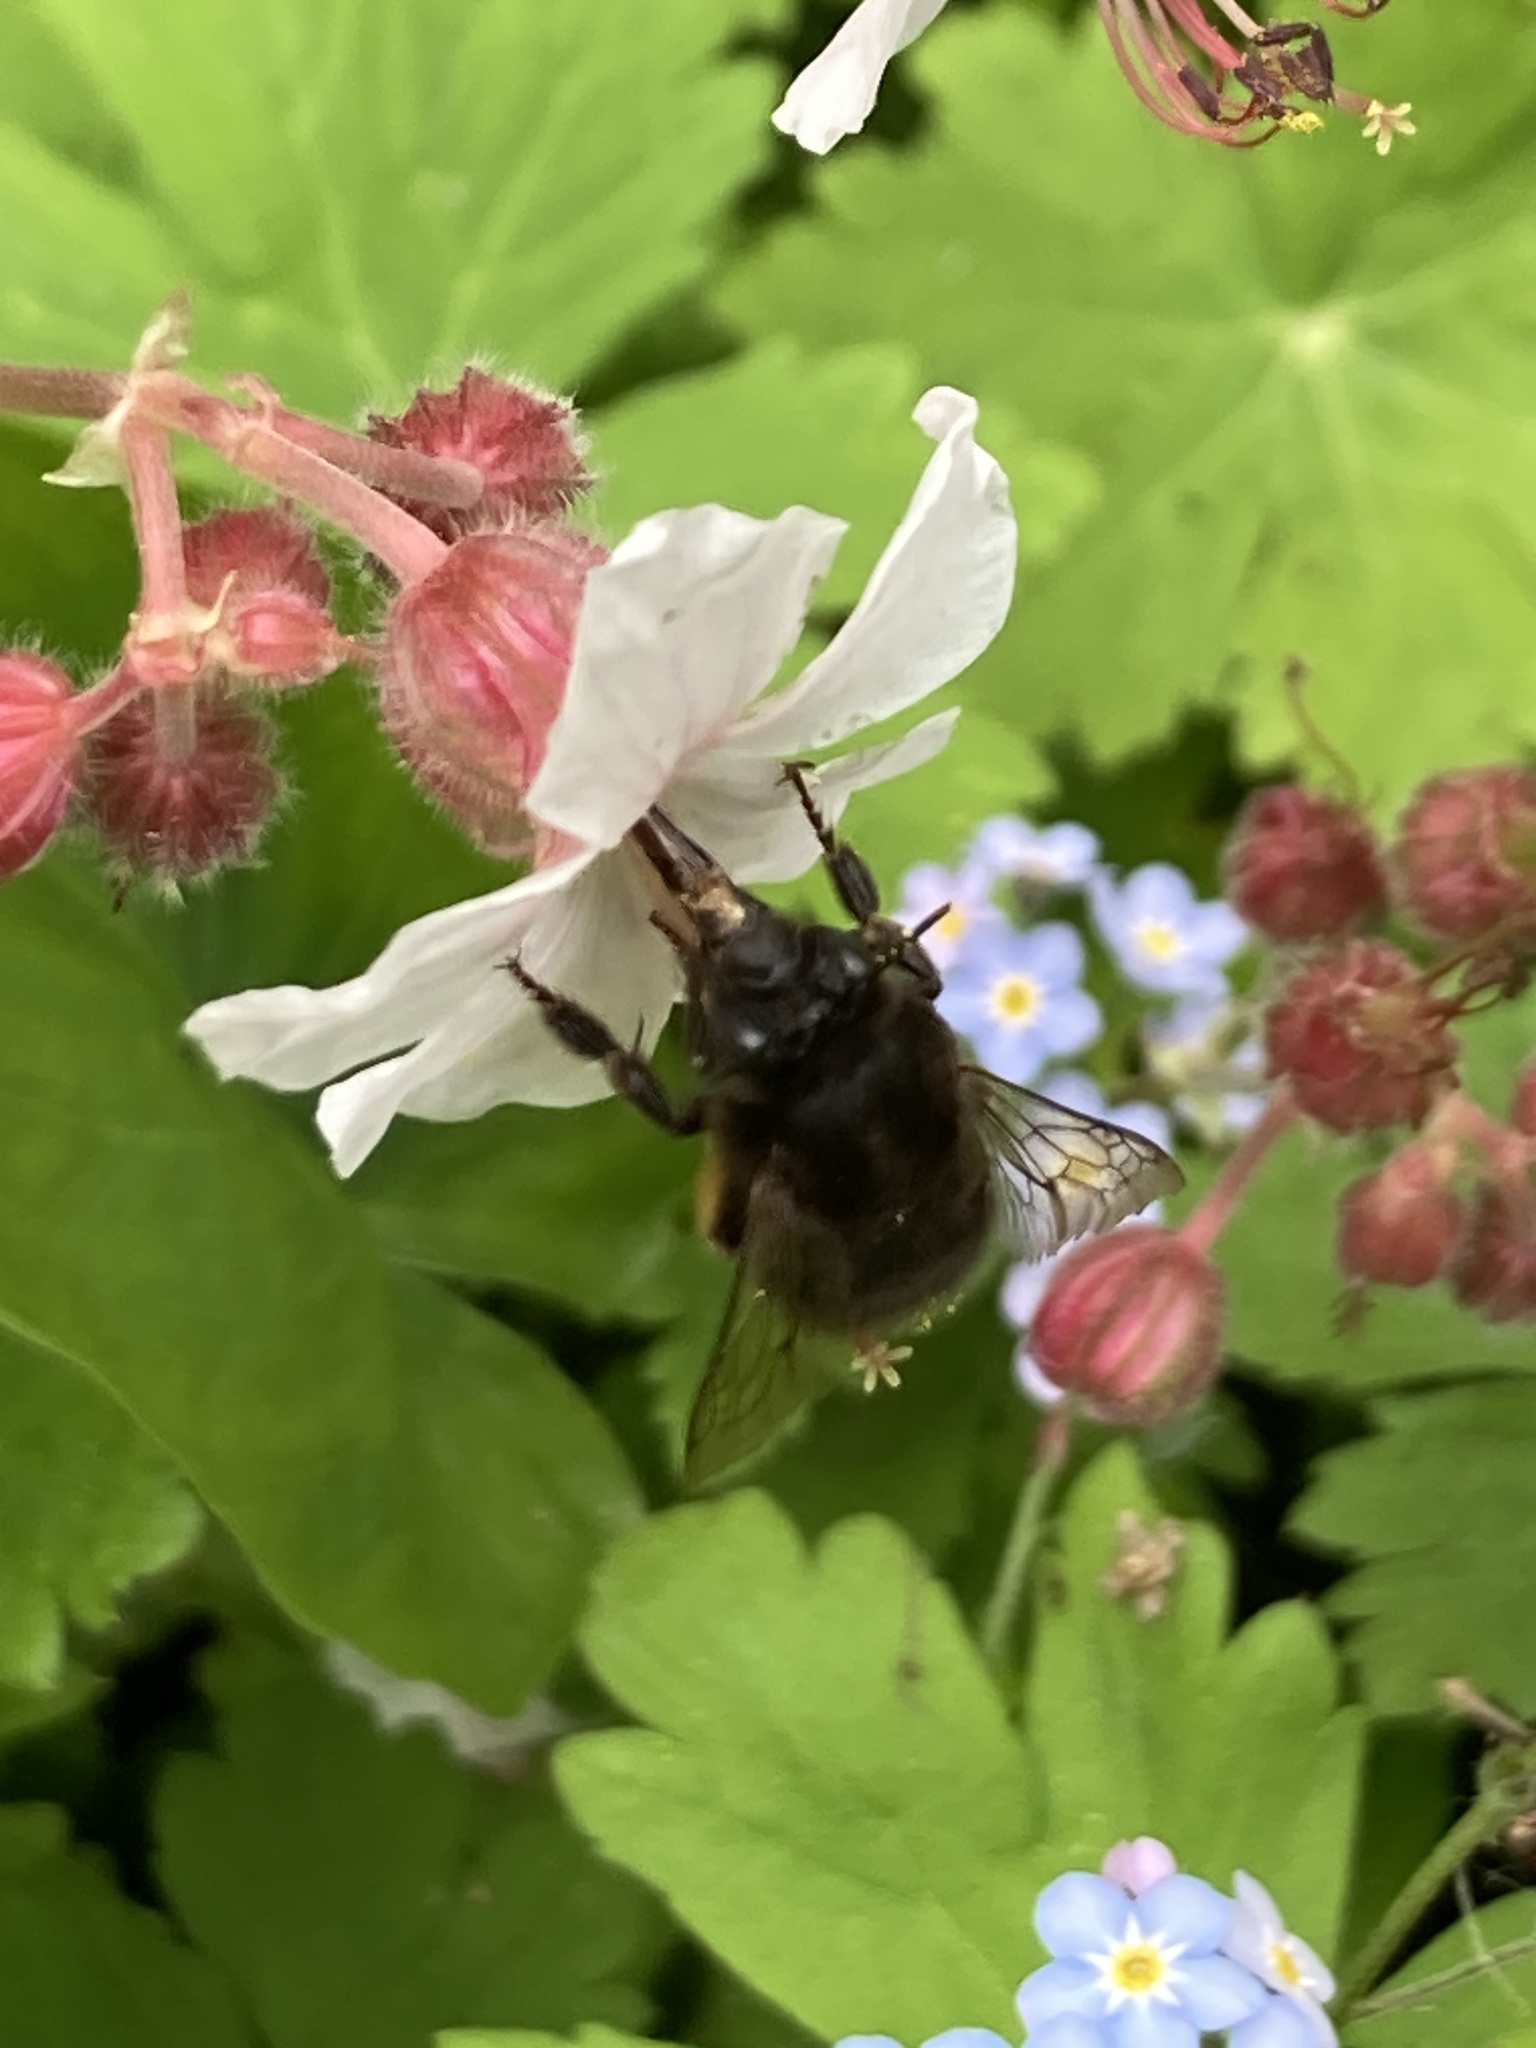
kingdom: Animalia
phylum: Arthropoda
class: Insecta
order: Hymenoptera
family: Apidae
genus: Anthophora
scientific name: Anthophora plumipes
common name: Hairy-footed flower bee
